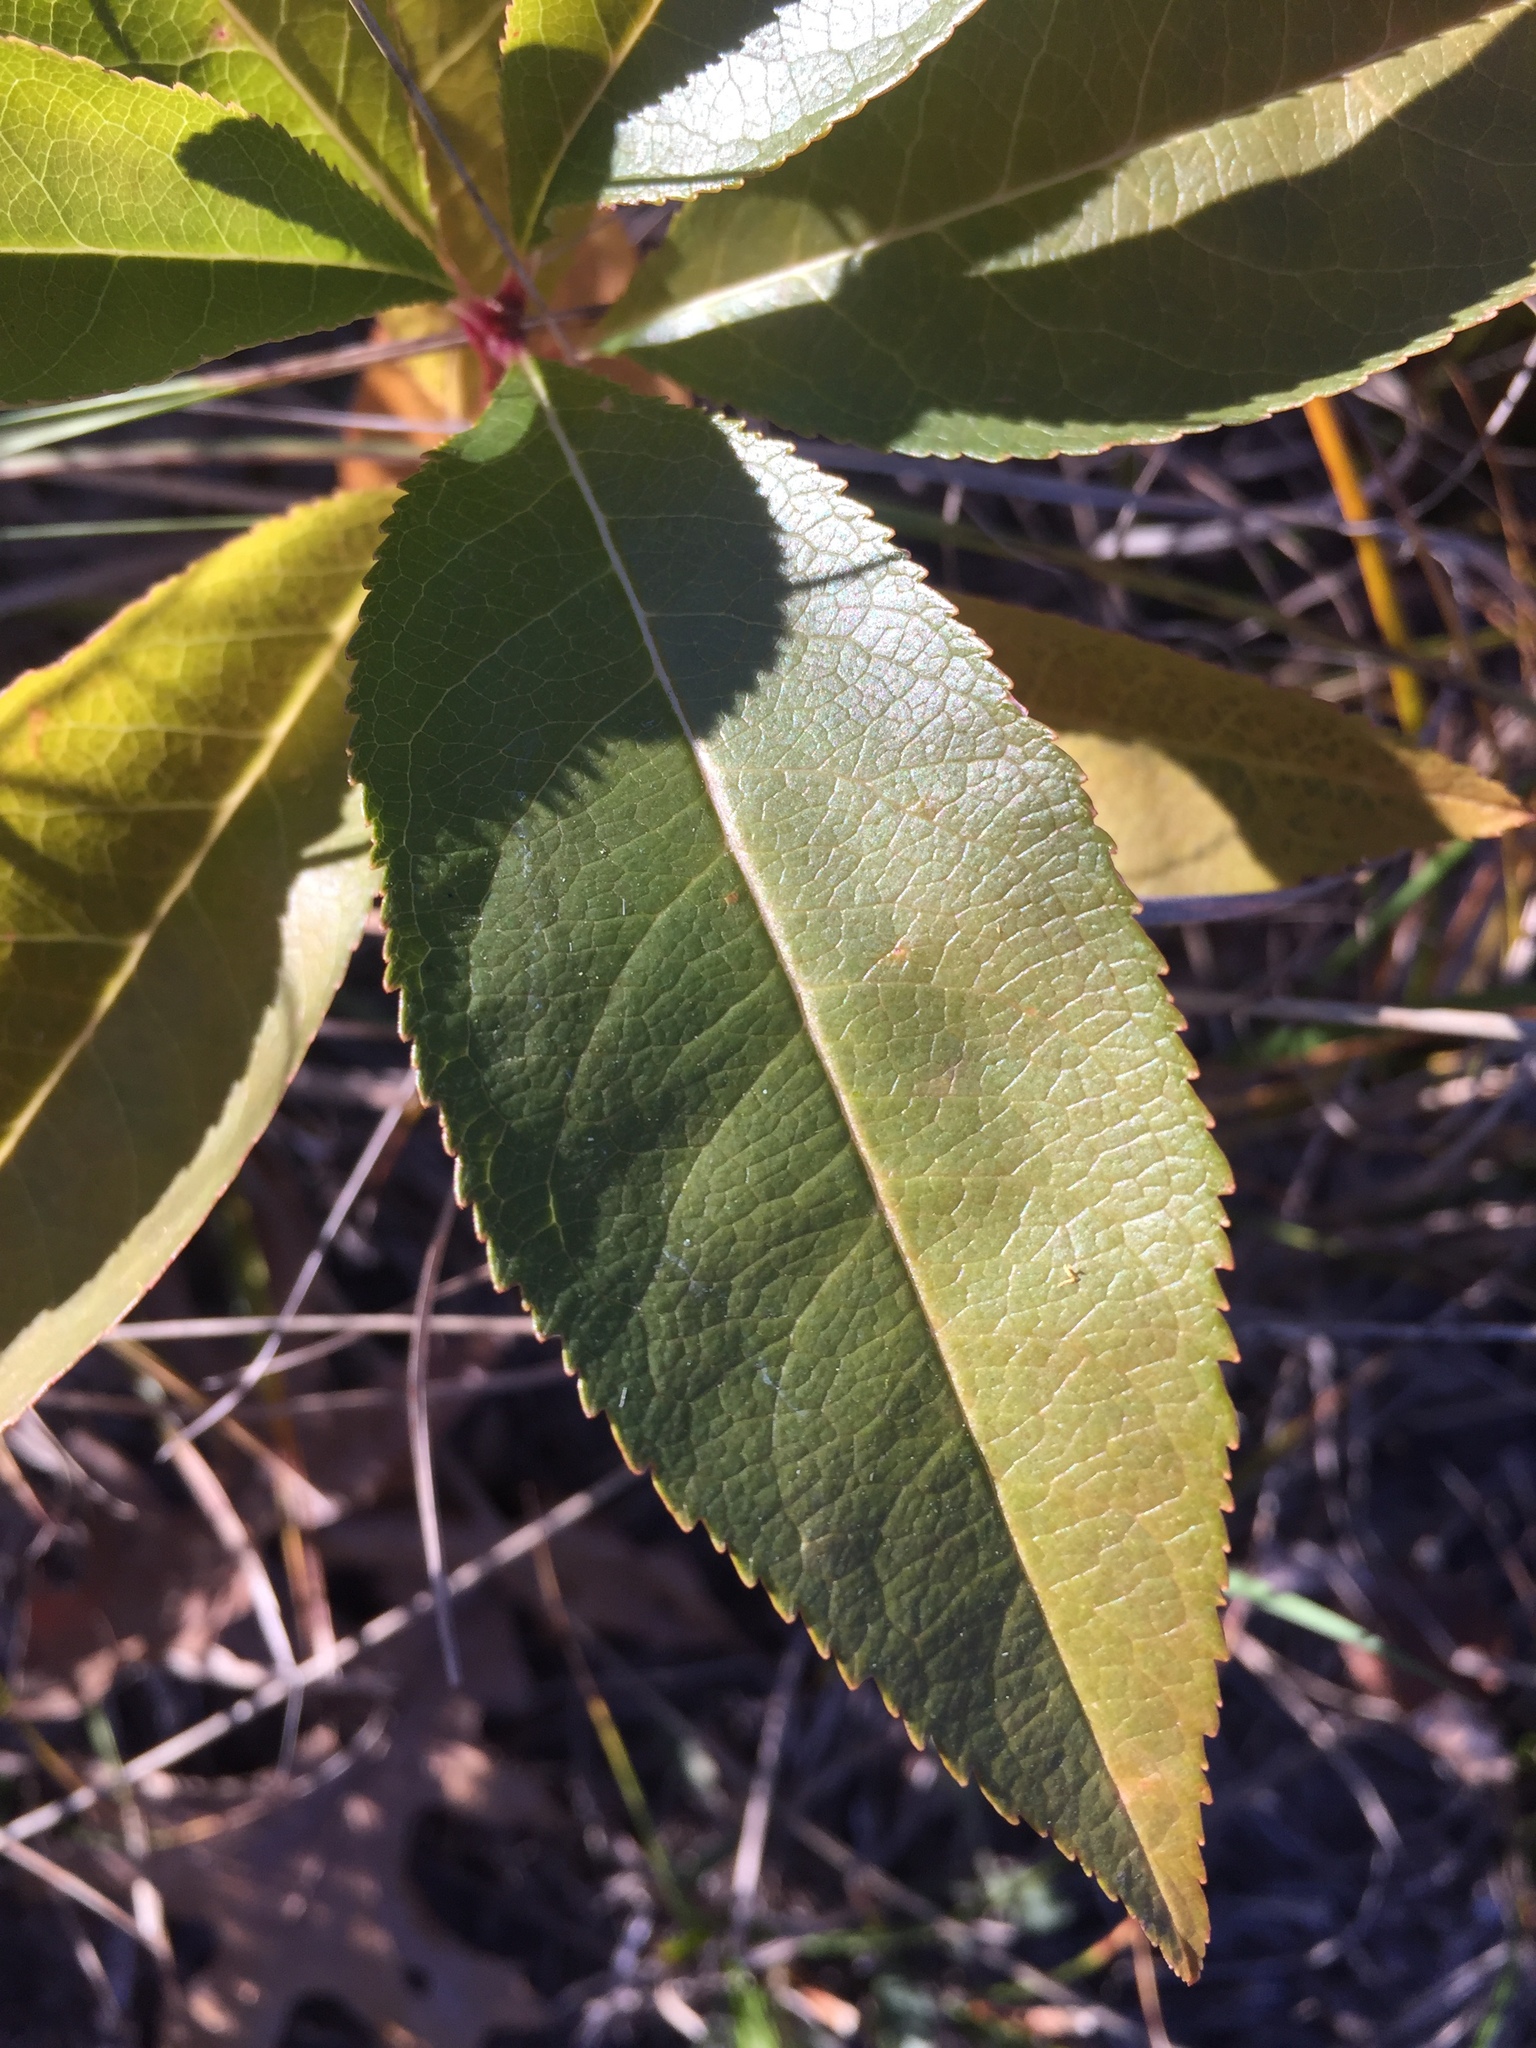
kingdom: Plantae
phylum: Tracheophyta
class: Magnoliopsida
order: Rosales
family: Rosaceae
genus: Prunus
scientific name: Prunus serotina
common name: Black cherry
